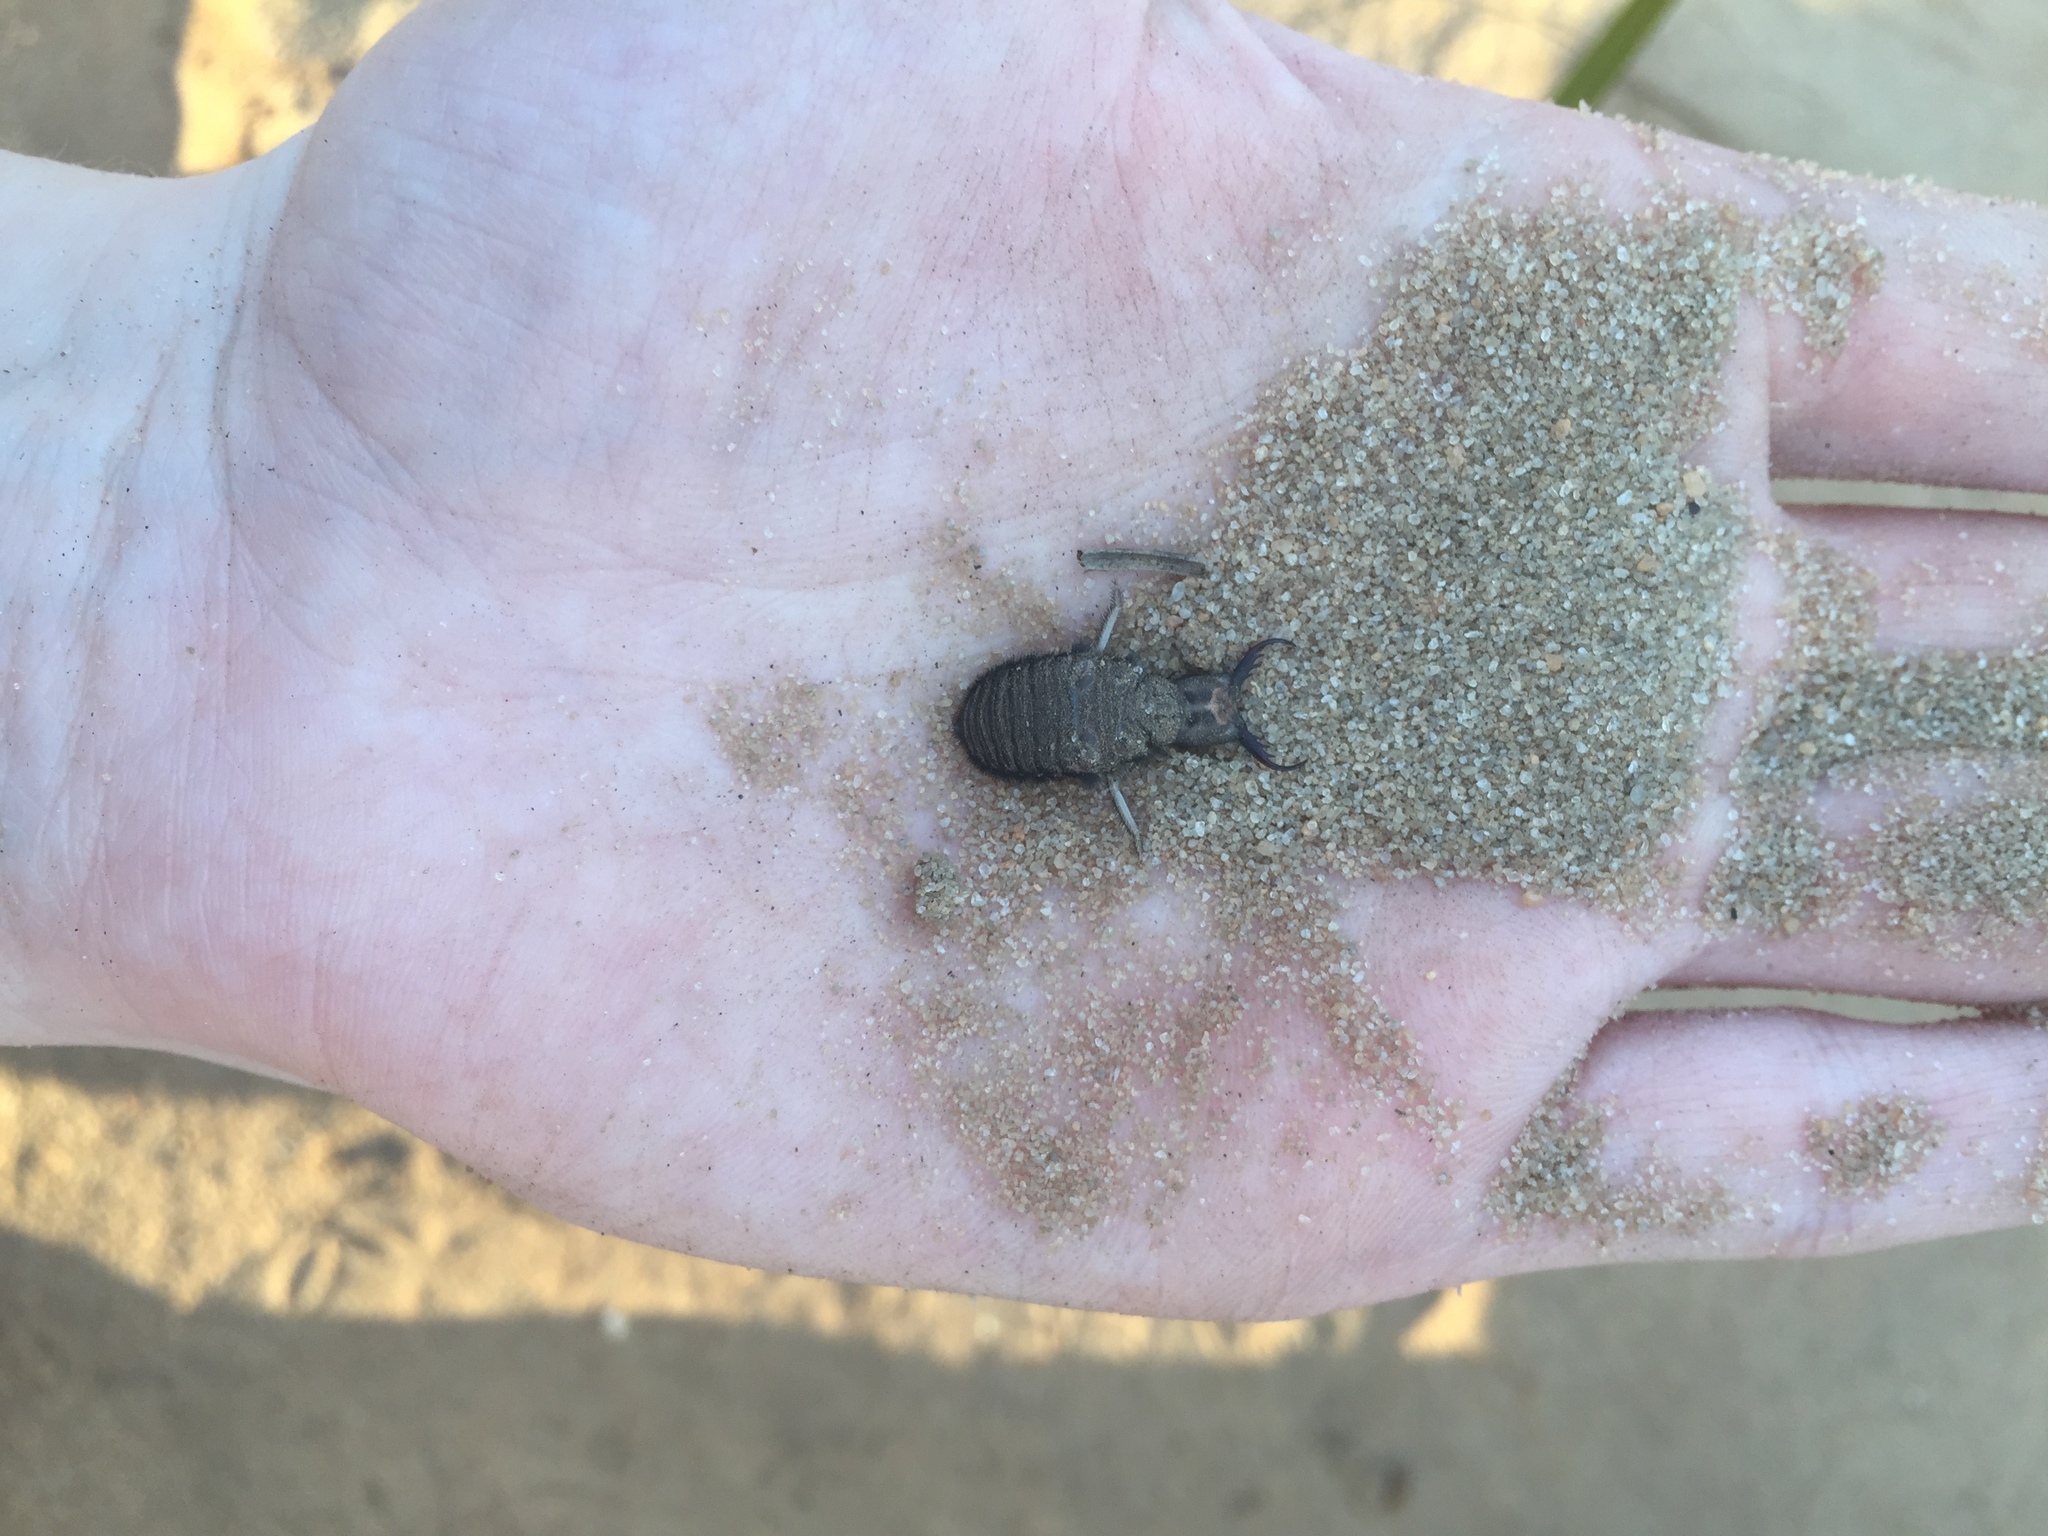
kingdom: Animalia
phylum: Arthropoda
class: Insecta
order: Neuroptera
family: Myrmeleontidae
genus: Vella
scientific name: Vella americana
